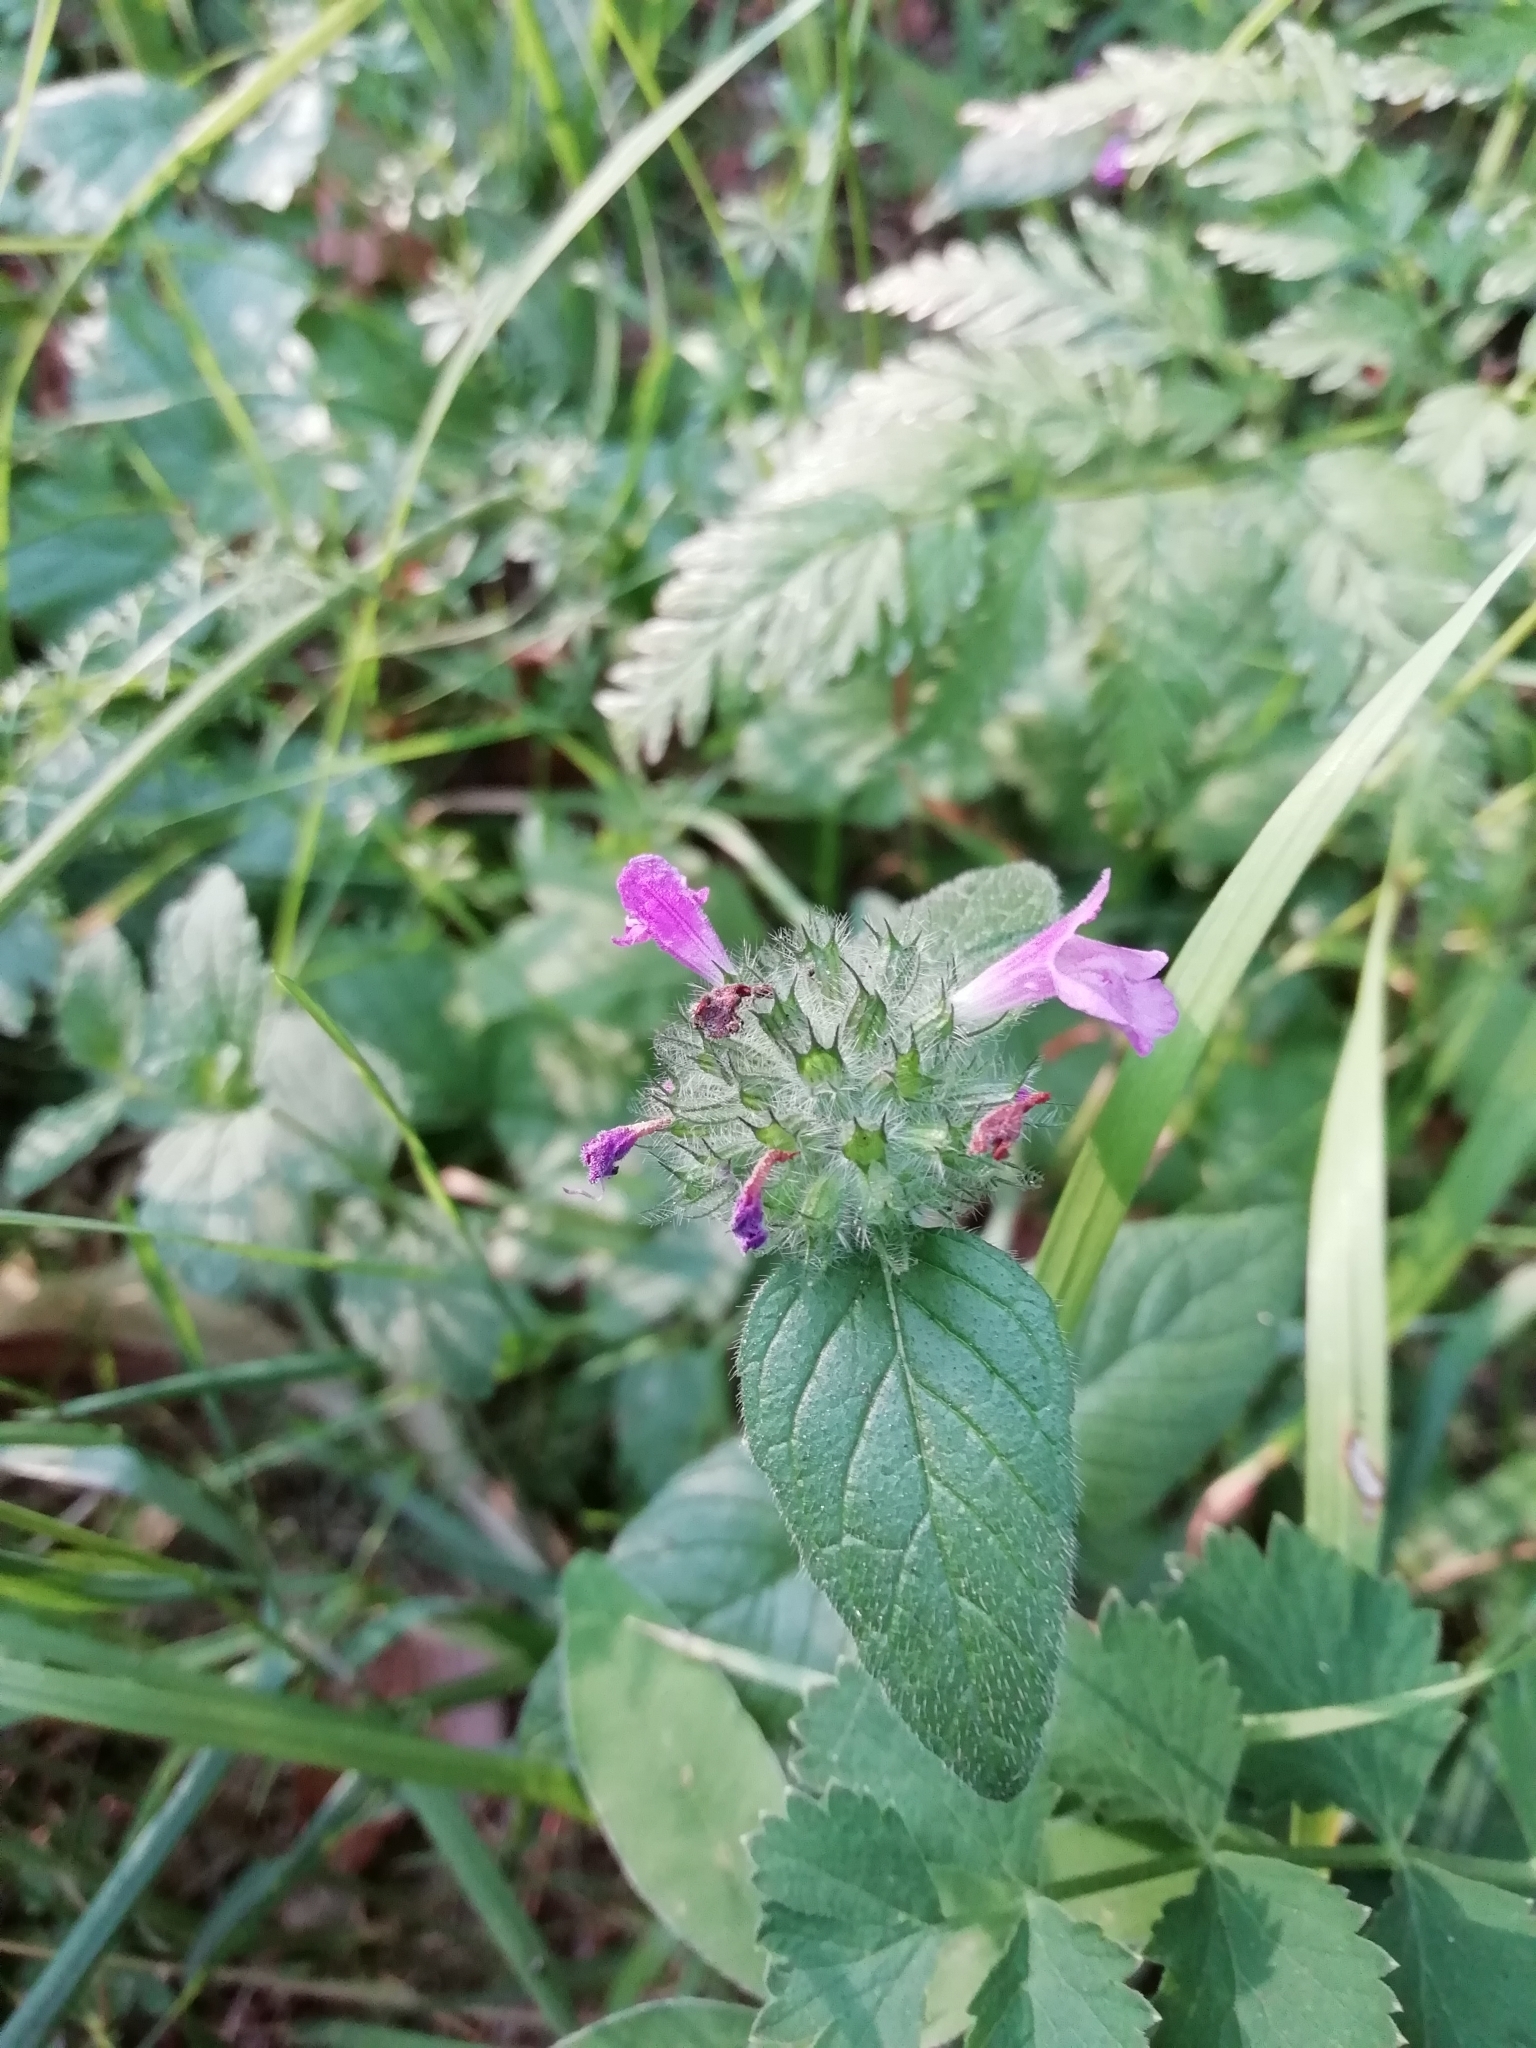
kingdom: Plantae
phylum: Tracheophyta
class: Magnoliopsida
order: Lamiales
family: Lamiaceae
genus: Clinopodium
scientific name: Clinopodium vulgare
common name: Wild basil
